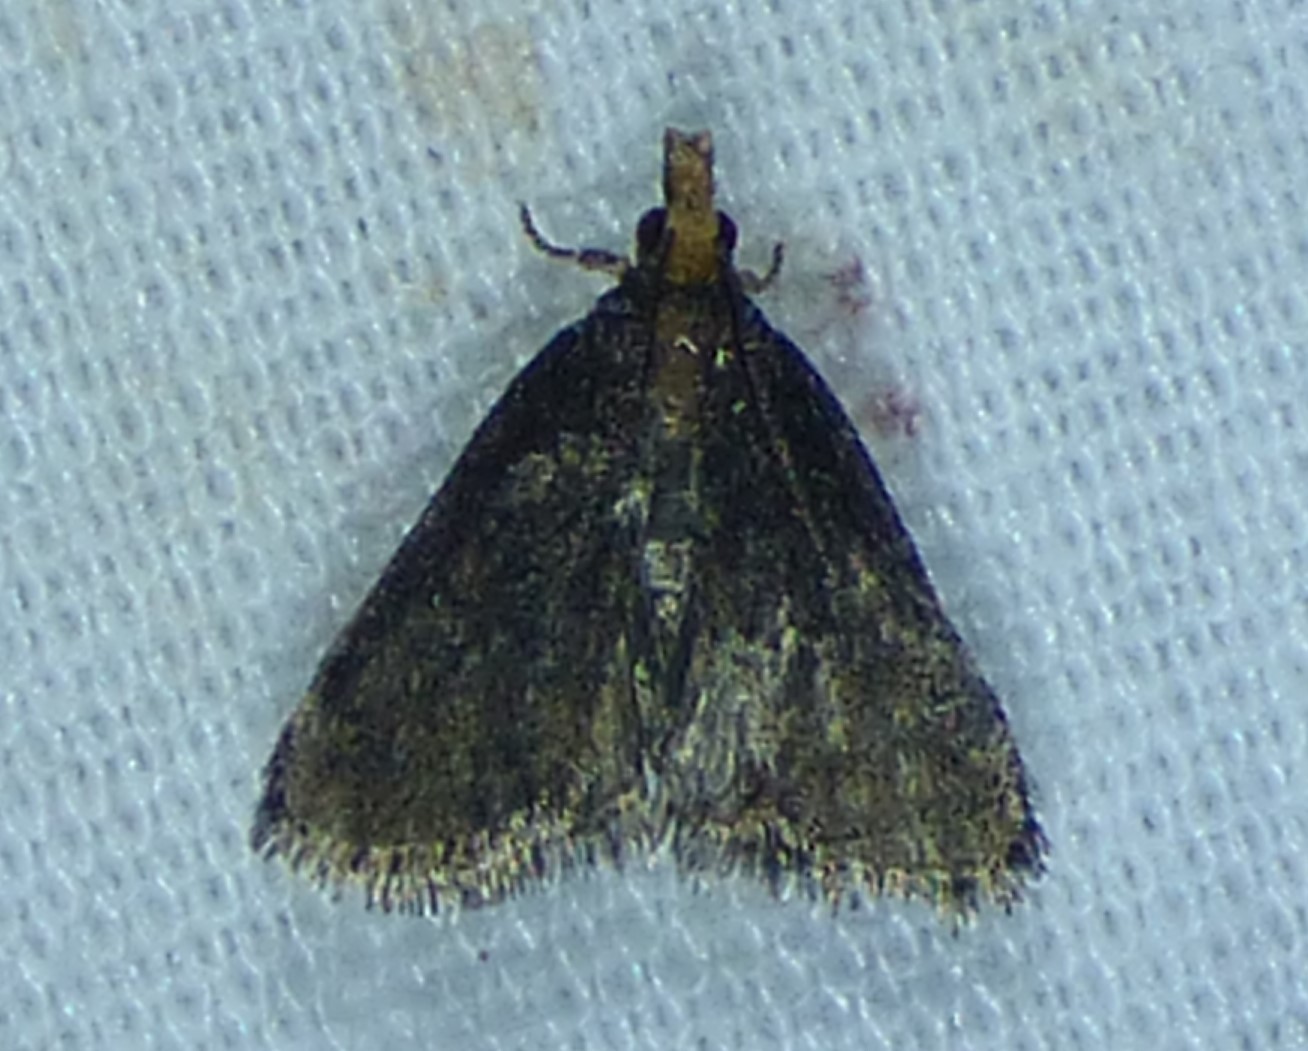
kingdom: Animalia
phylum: Arthropoda
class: Insecta
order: Lepidoptera
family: Crambidae
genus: Pyrausta
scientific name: Pyrausta merrickalis
